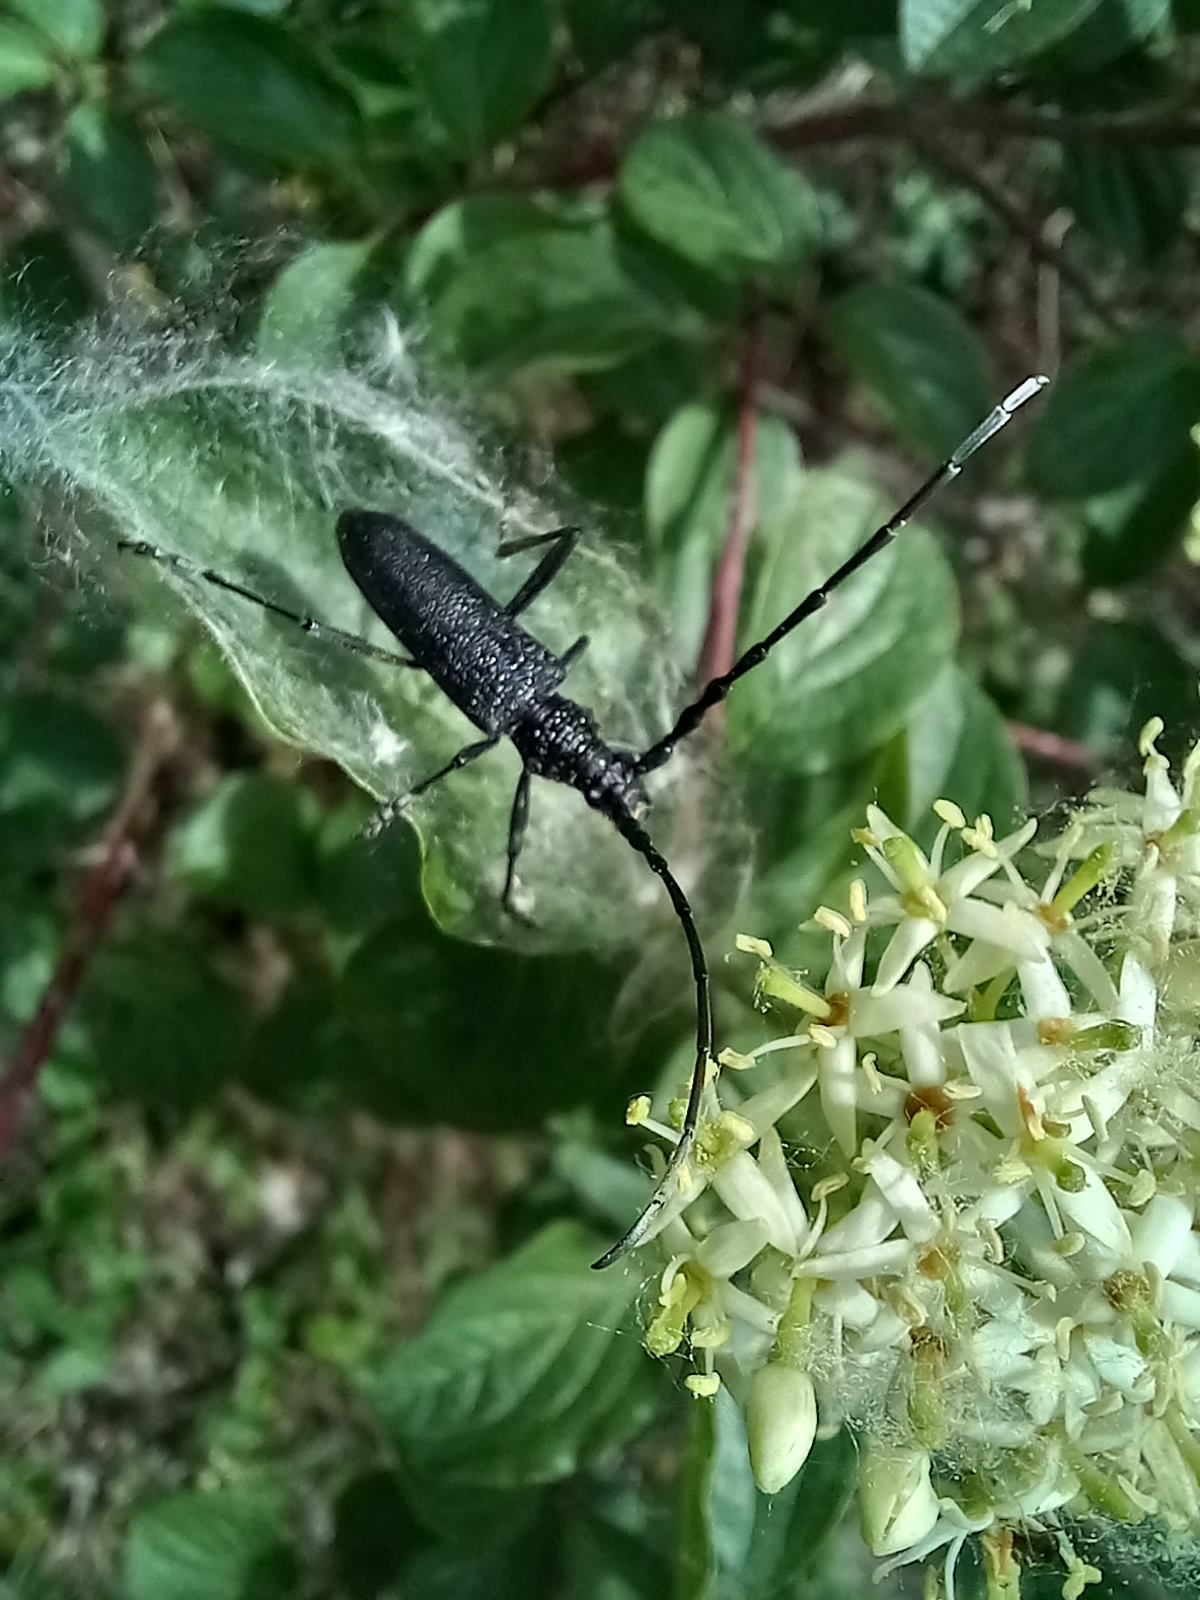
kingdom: Animalia
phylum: Arthropoda
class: Insecta
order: Coleoptera
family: Cerambycidae
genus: Cerambyx
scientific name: Cerambyx scopolii
